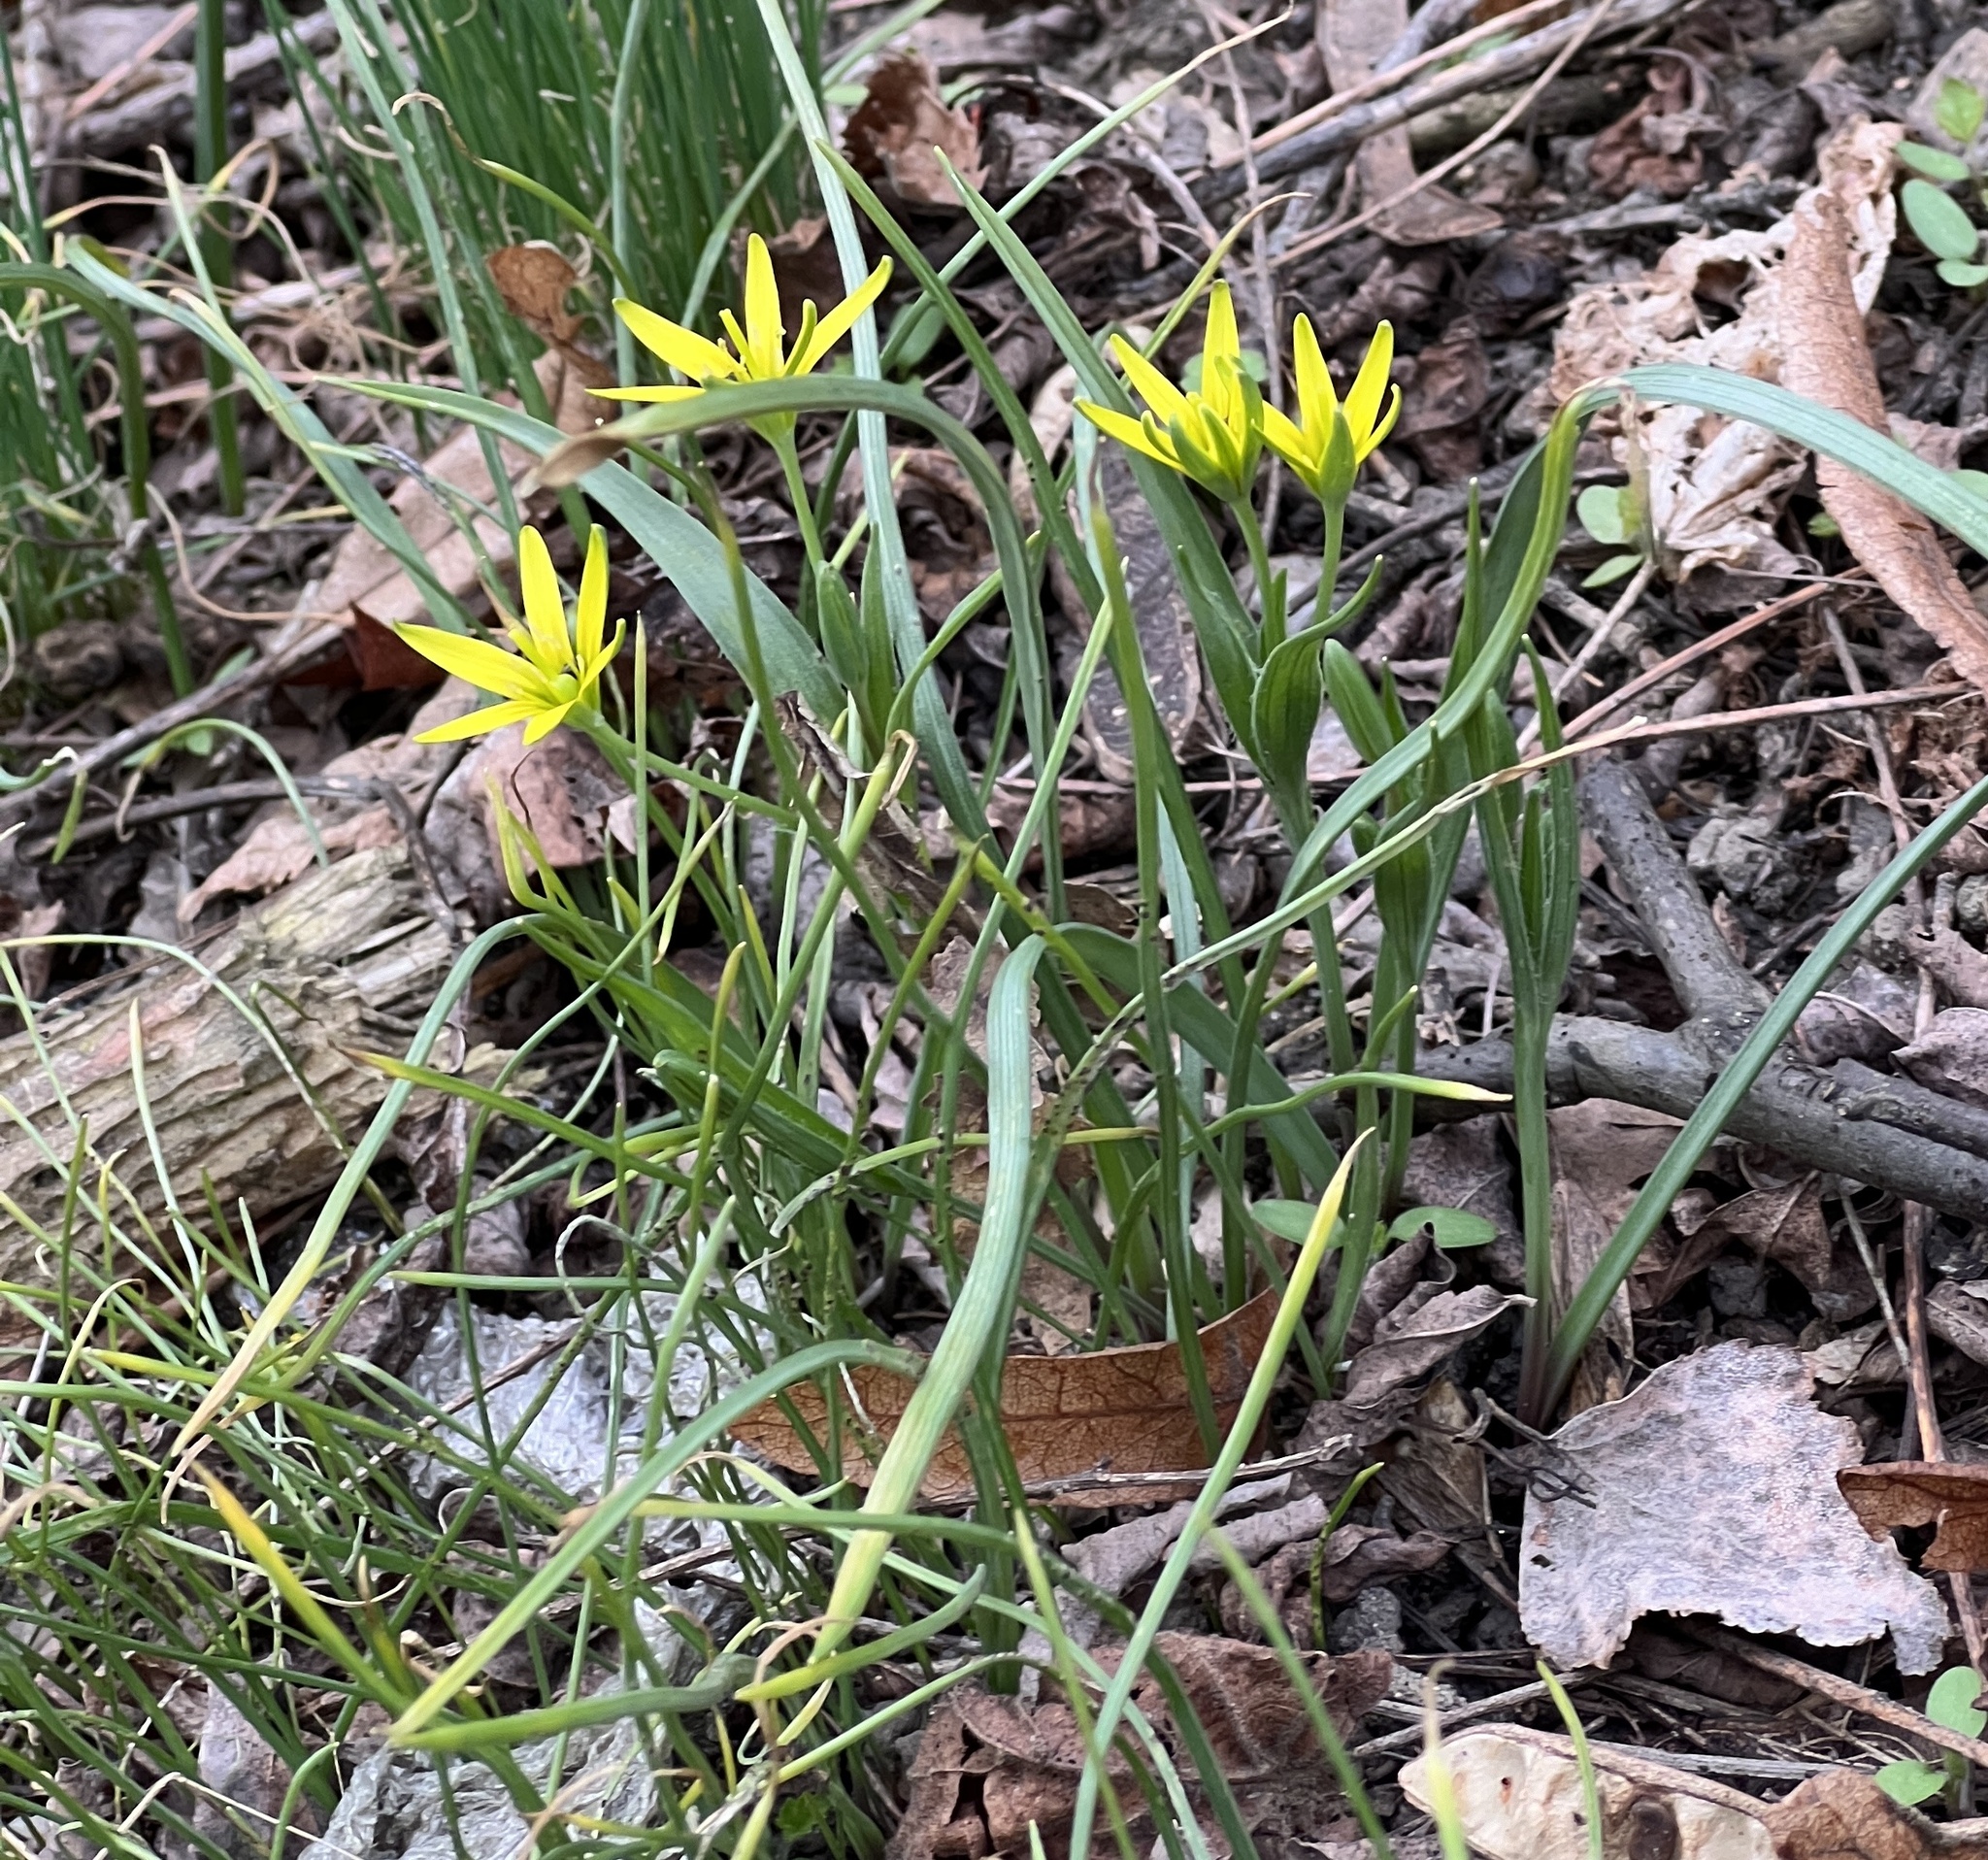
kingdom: Plantae
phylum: Tracheophyta
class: Liliopsida
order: Liliales
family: Liliaceae
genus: Gagea
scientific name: Gagea pratensis
